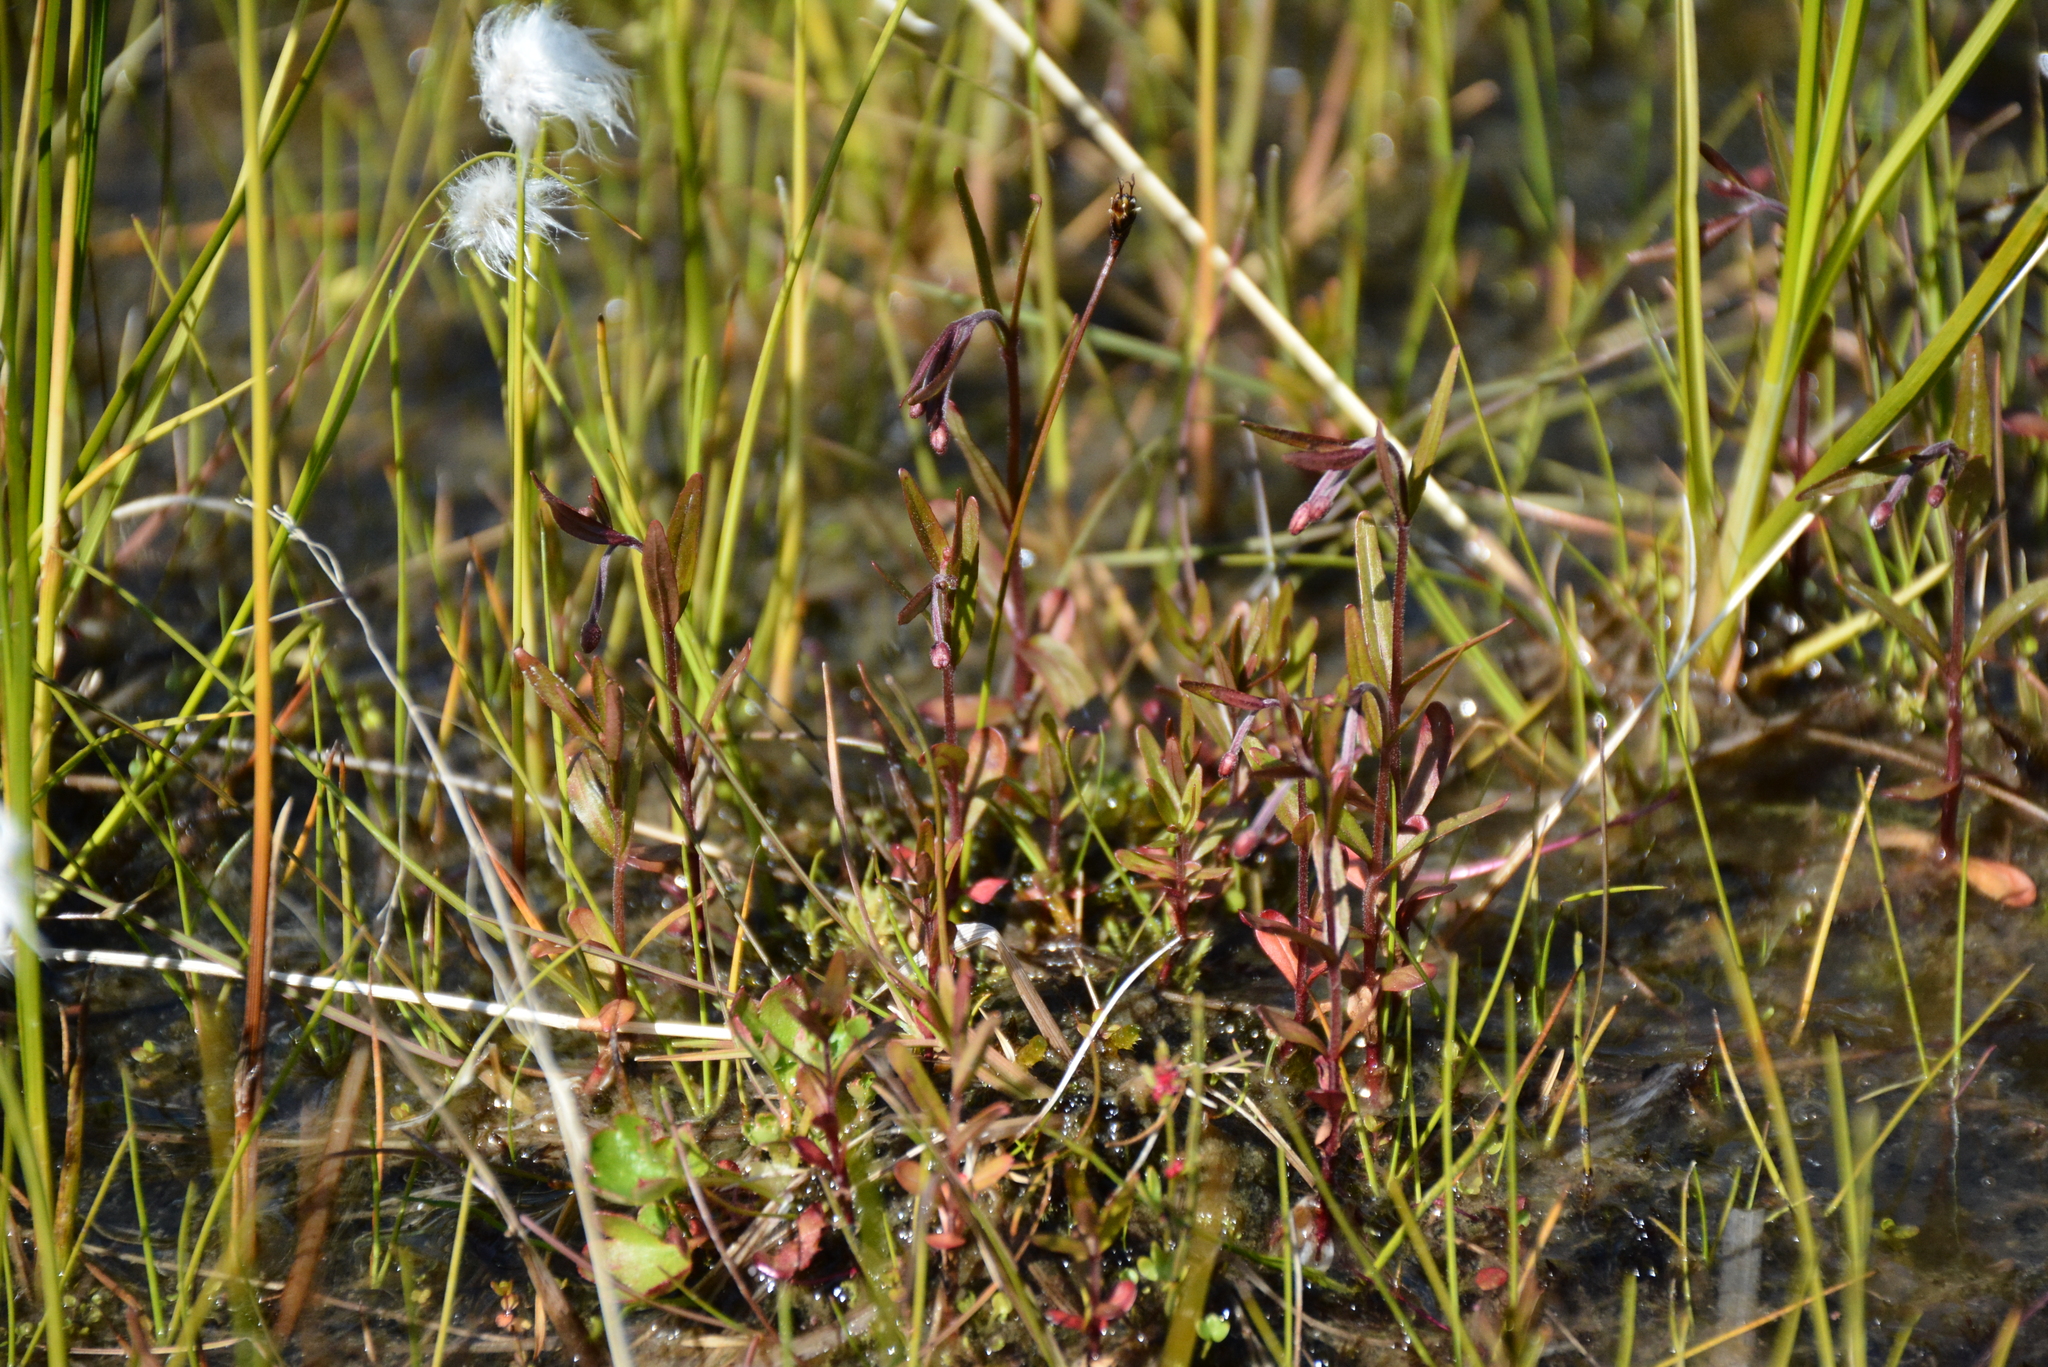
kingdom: Plantae
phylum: Tracheophyta
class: Magnoliopsida
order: Myrtales
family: Onagraceae
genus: Epilobium
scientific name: Epilobium palustre
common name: Marsh willowherb
